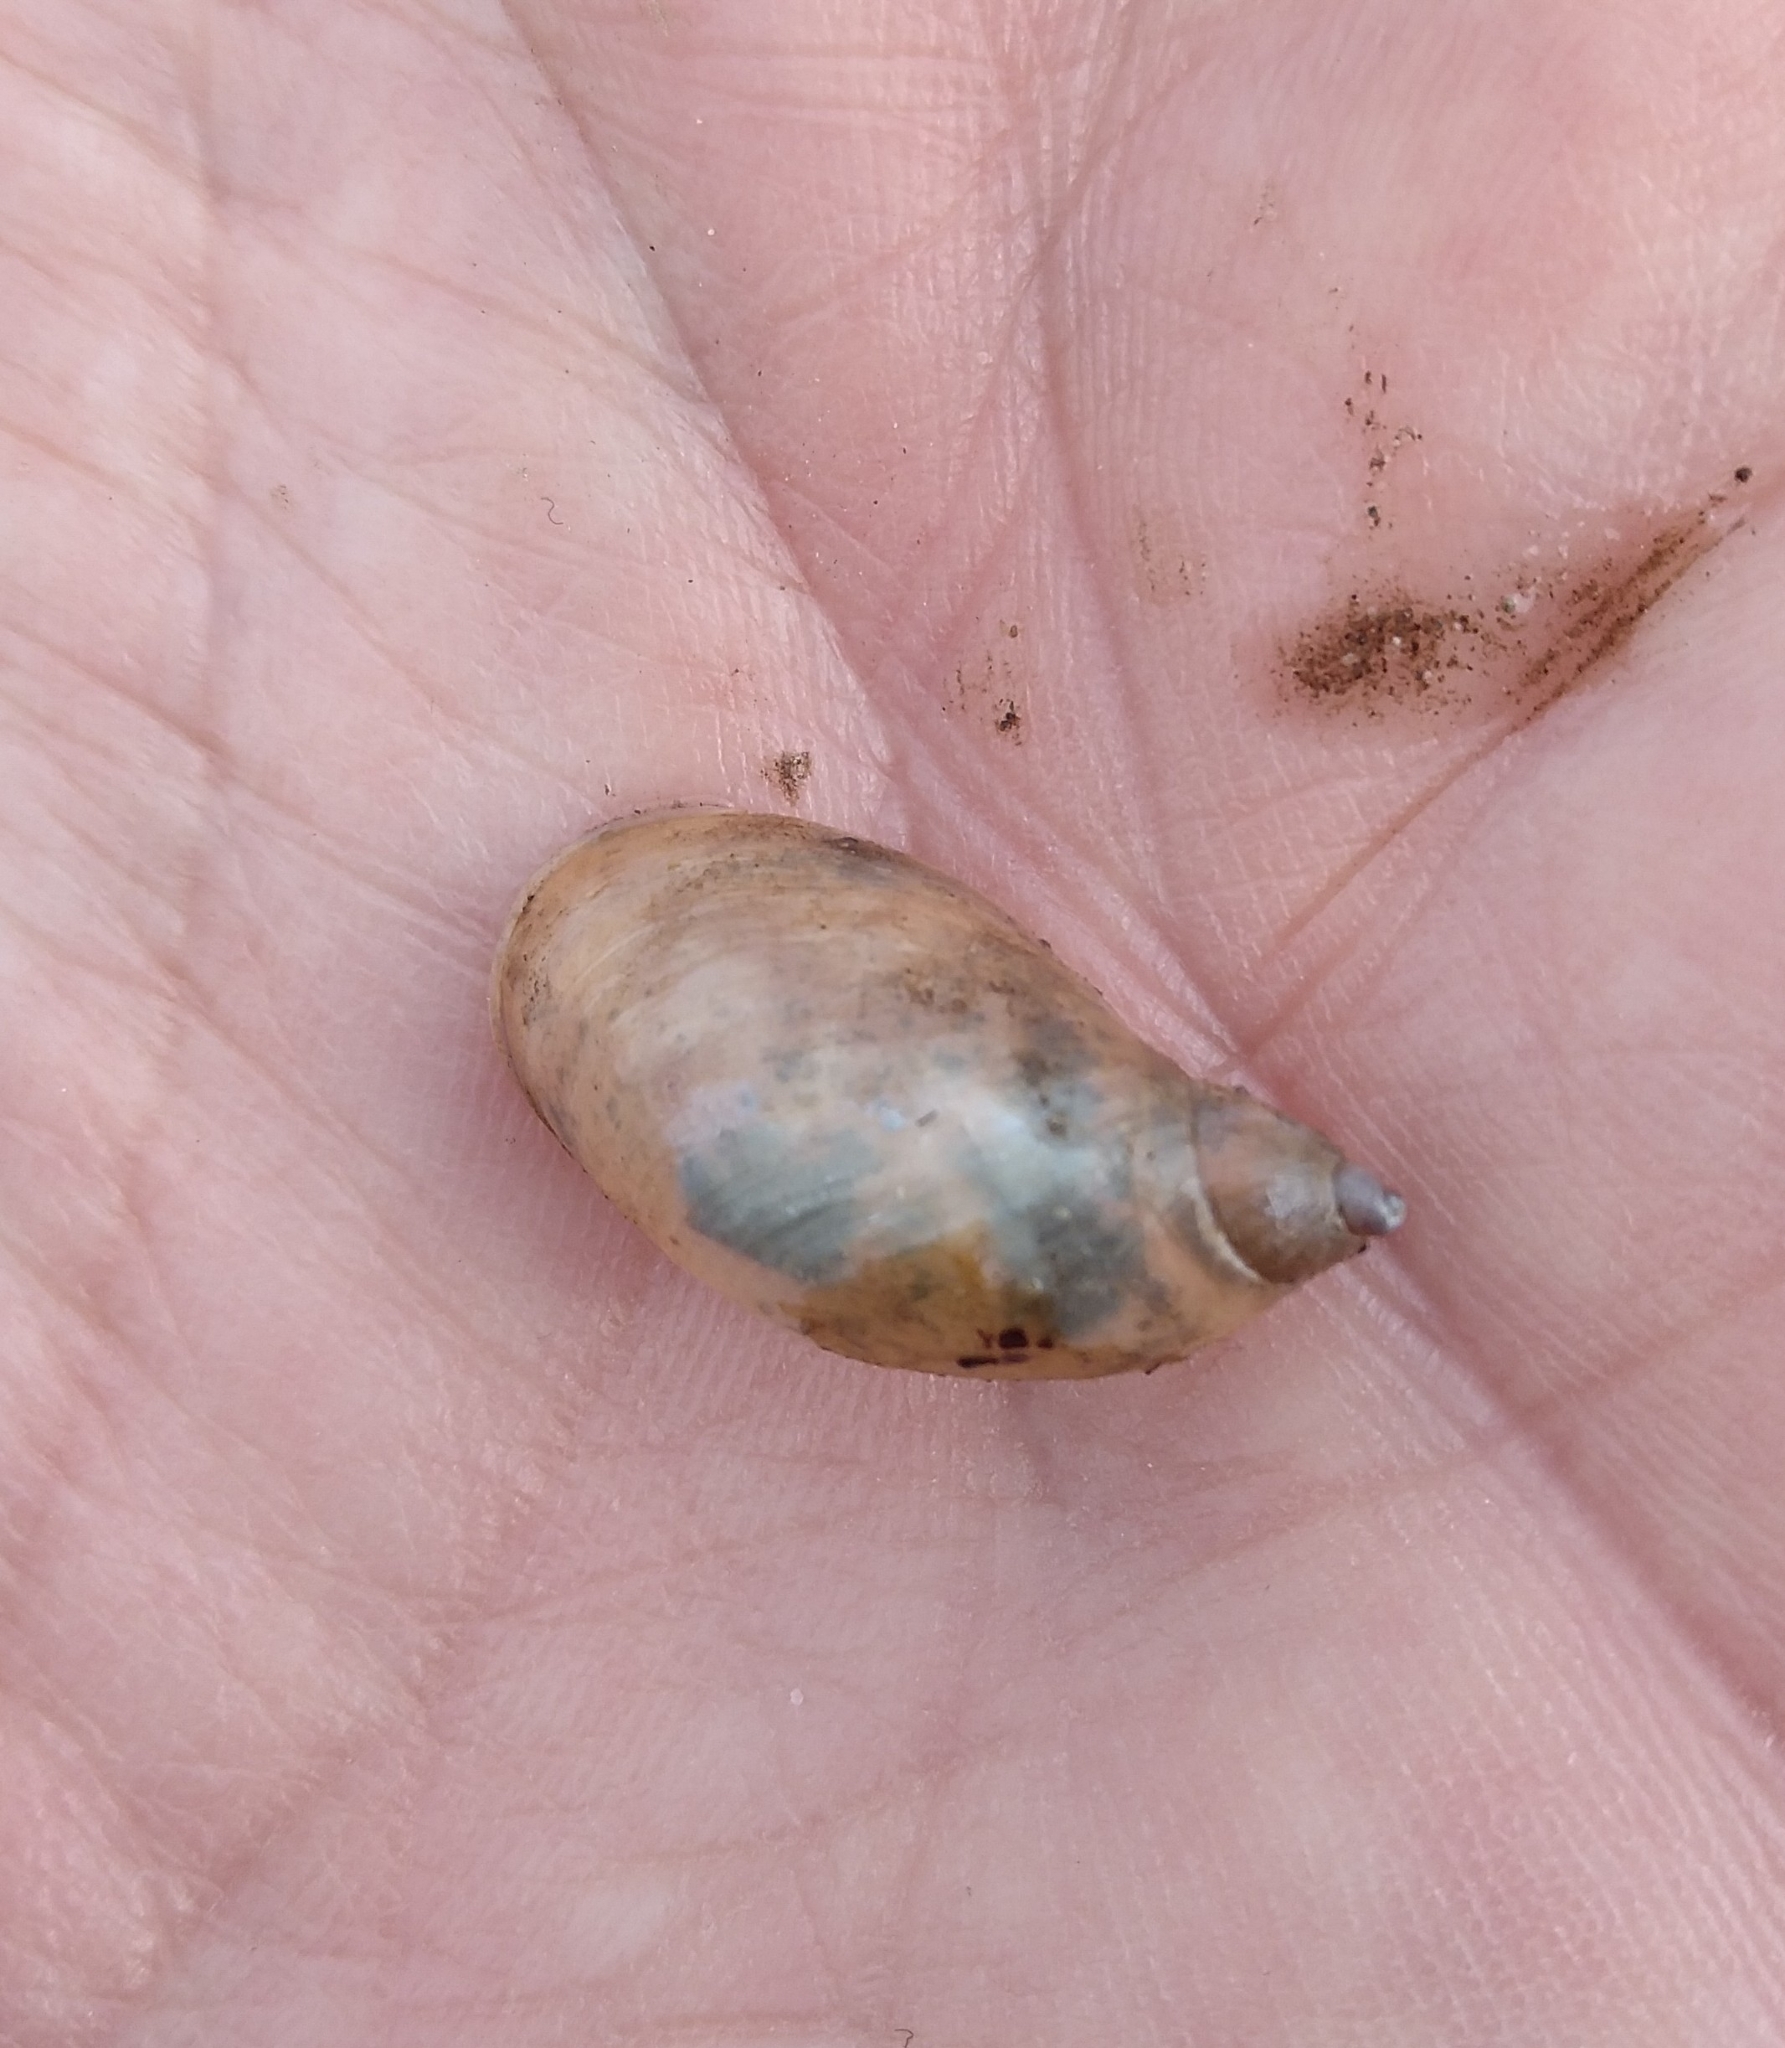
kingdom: Animalia
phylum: Mollusca
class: Gastropoda
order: Stylommatophora
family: Succineidae
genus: Oxyloma
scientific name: Oxyloma elegans
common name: Pfeiffer's amber snail
